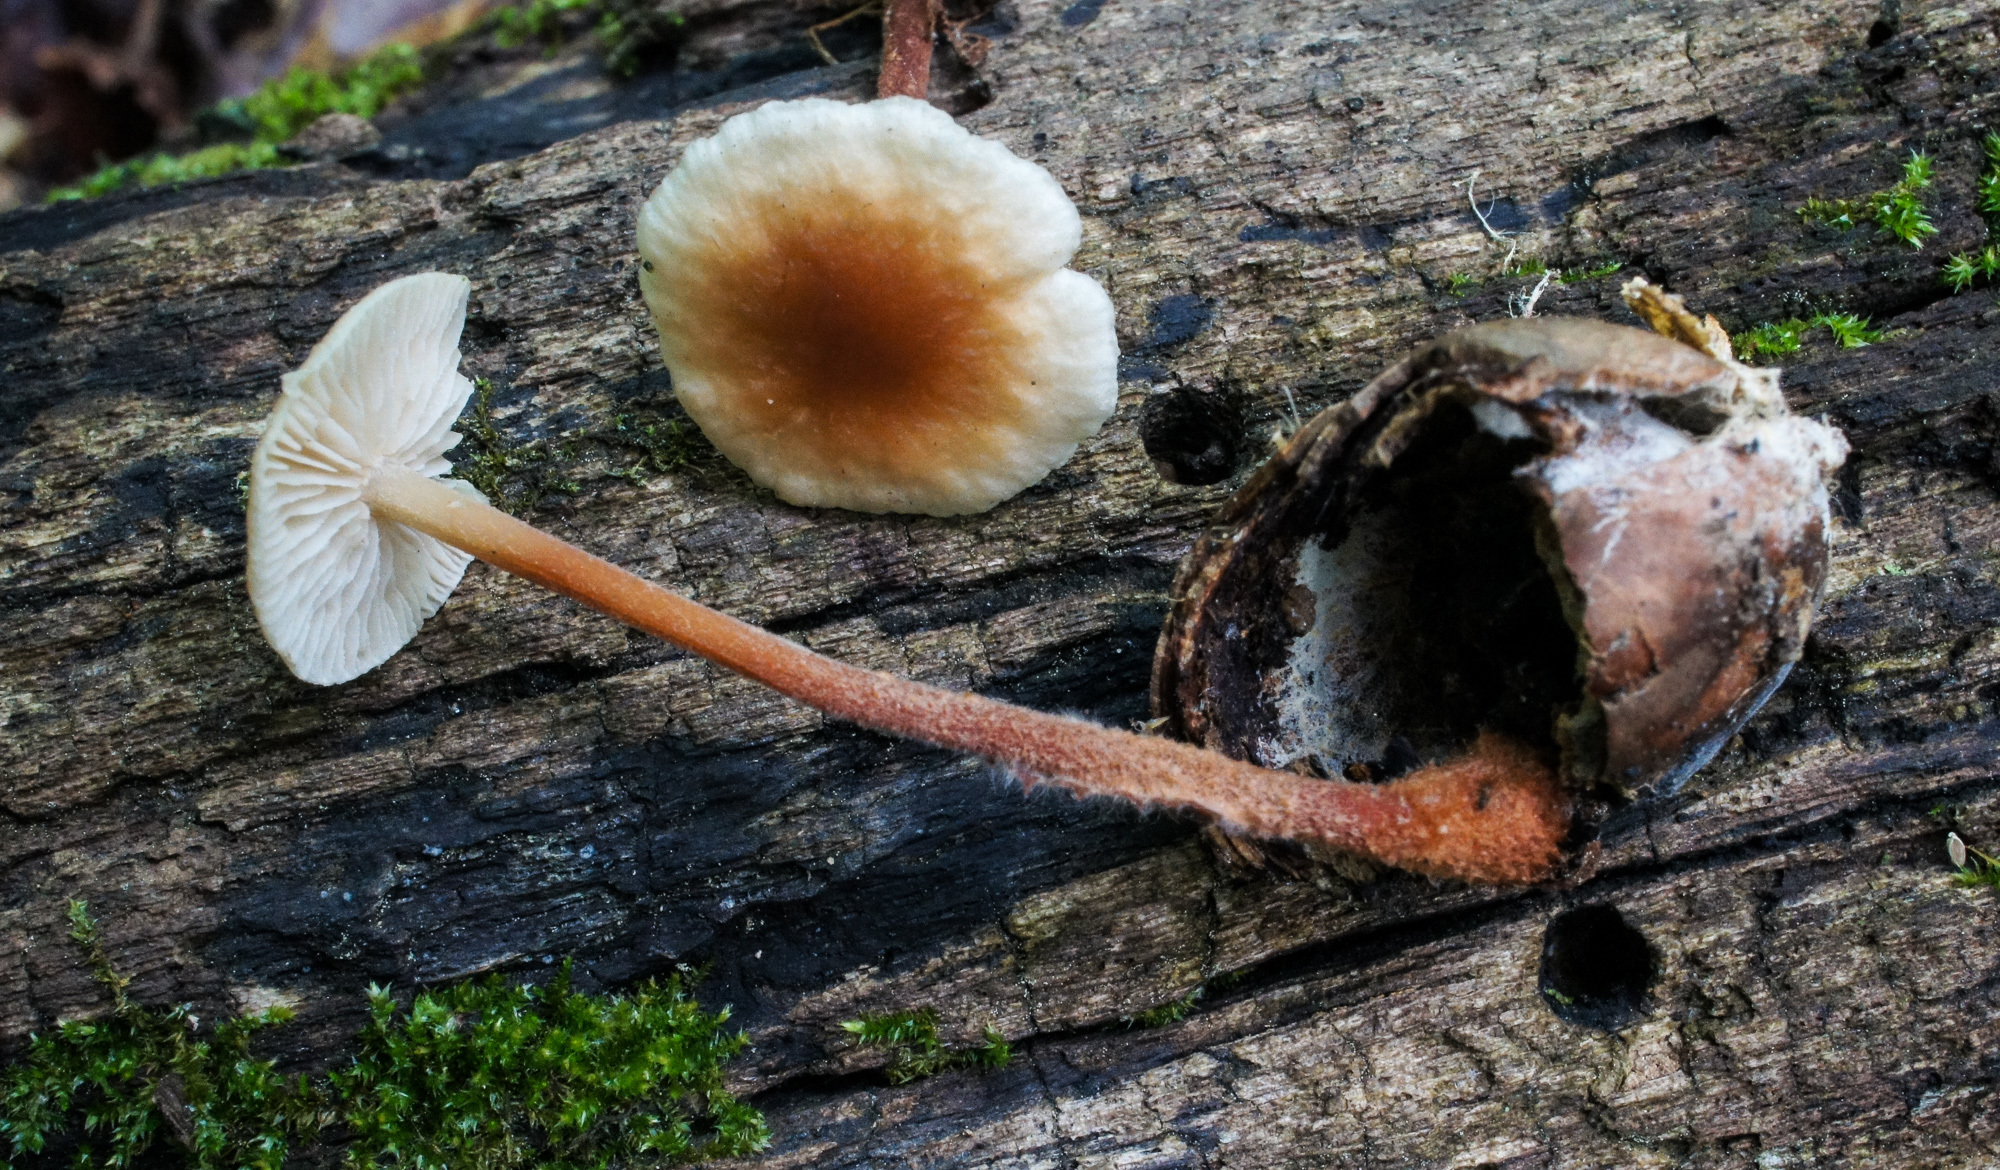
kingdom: Fungi
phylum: Basidiomycota
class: Agaricomycetes
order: Agaricales
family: Omphalotaceae
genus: Gymnopus
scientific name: Gymnopus semihirtipes
